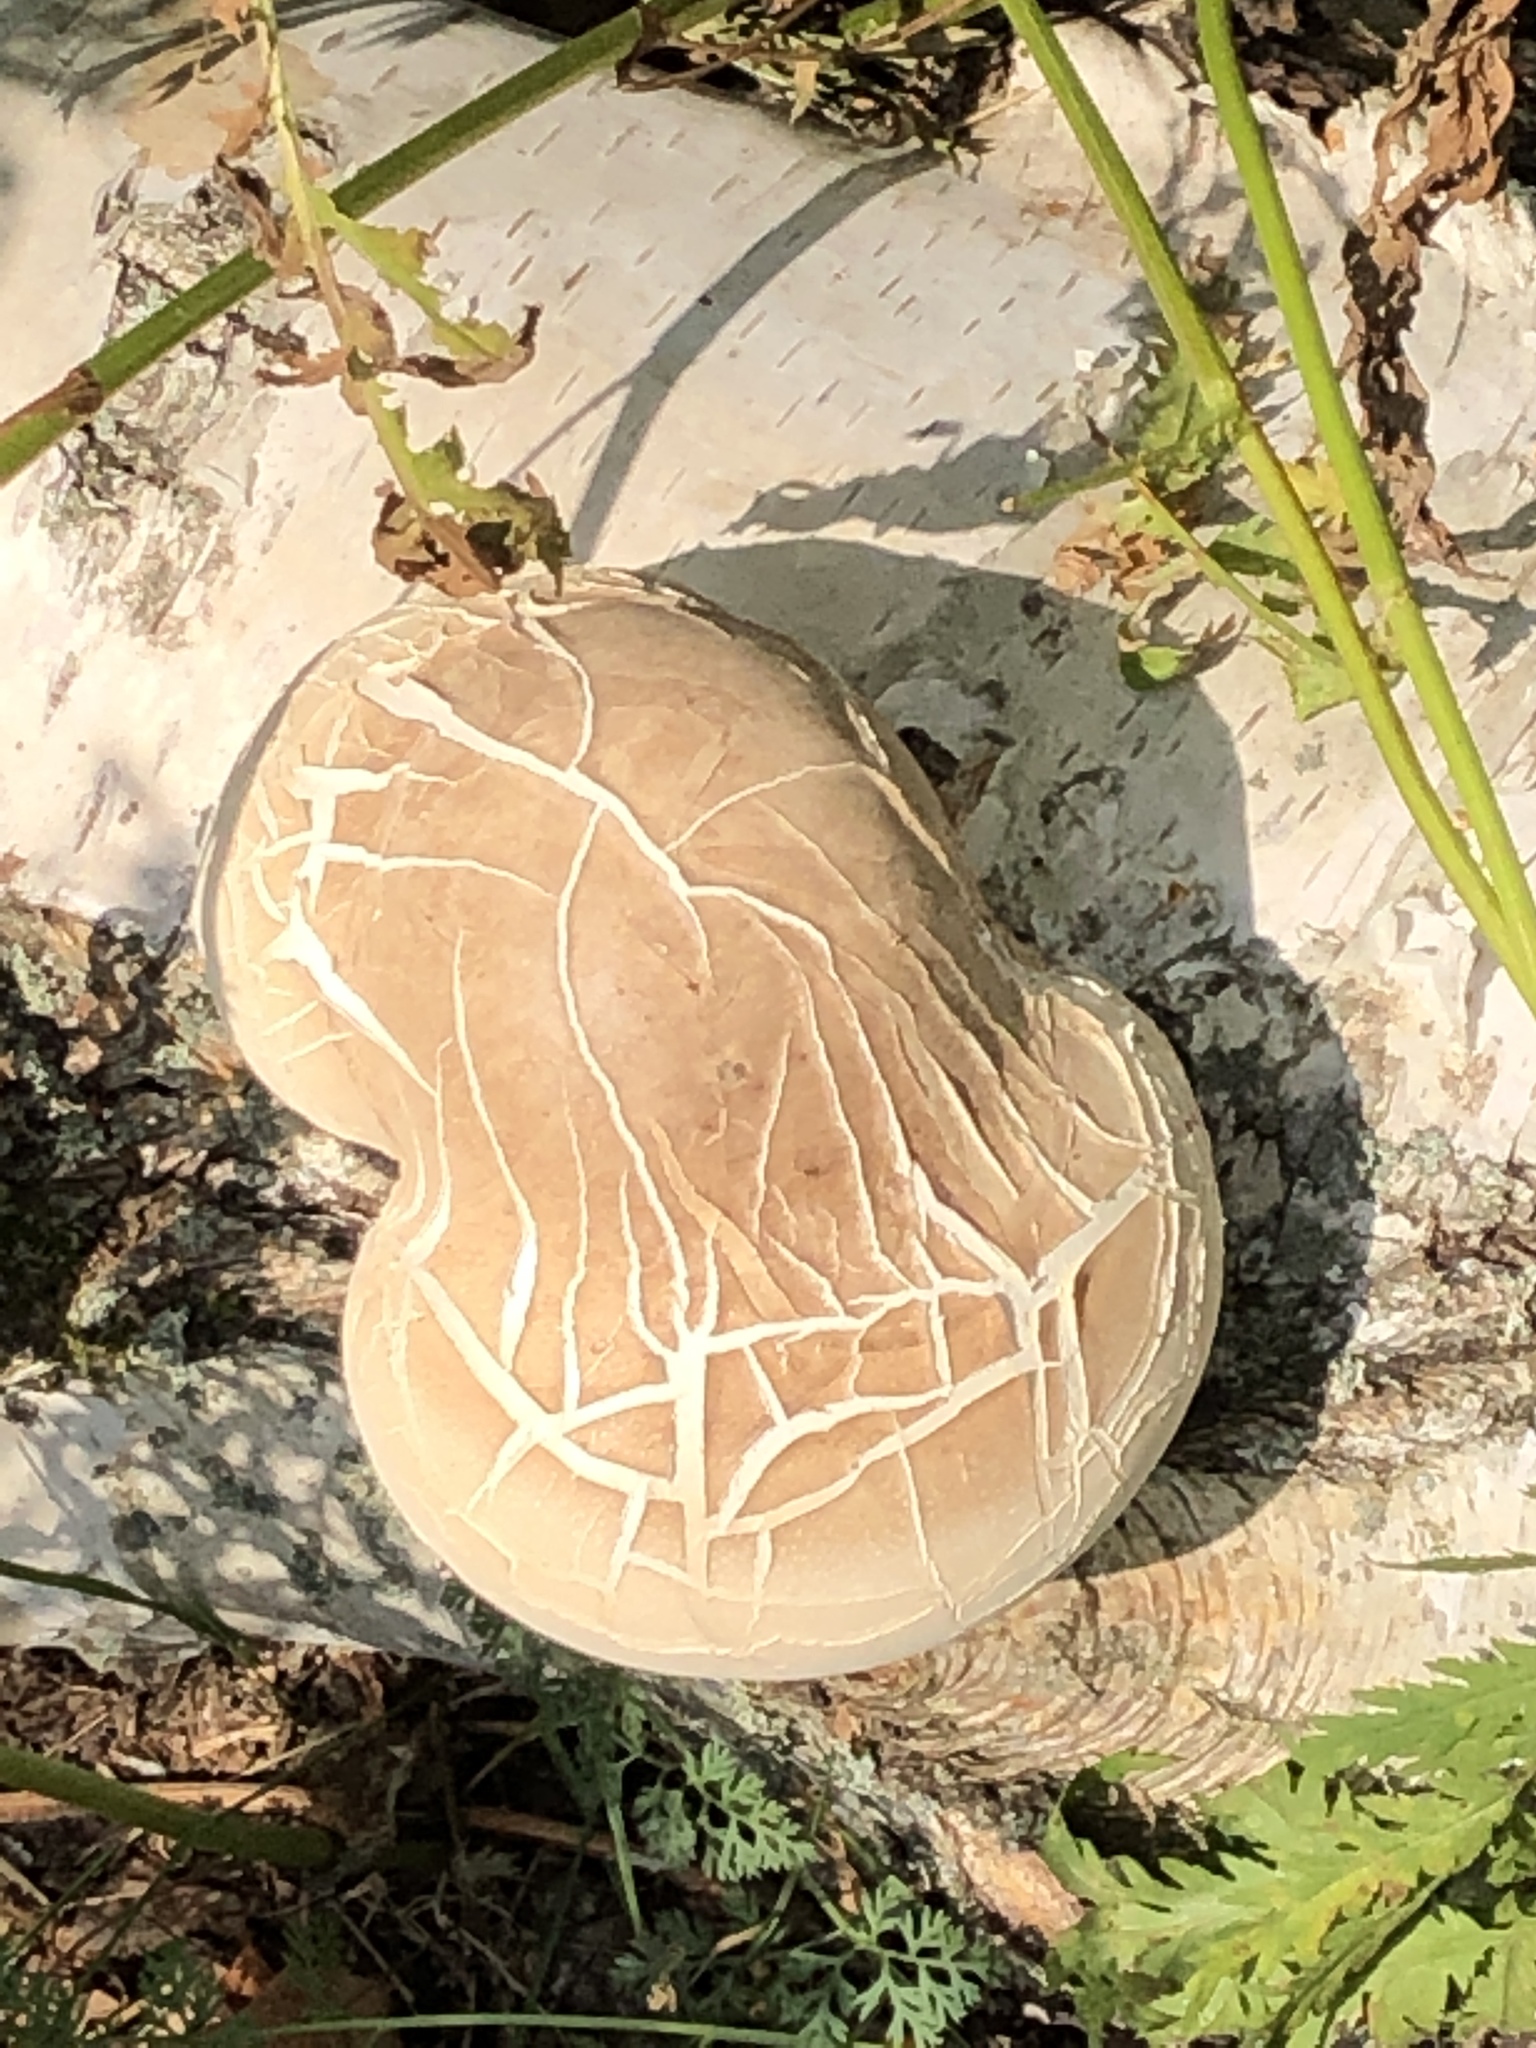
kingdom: Fungi
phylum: Basidiomycota
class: Agaricomycetes
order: Polyporales
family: Fomitopsidaceae
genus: Fomitopsis
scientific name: Fomitopsis betulina
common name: Birch polypore
